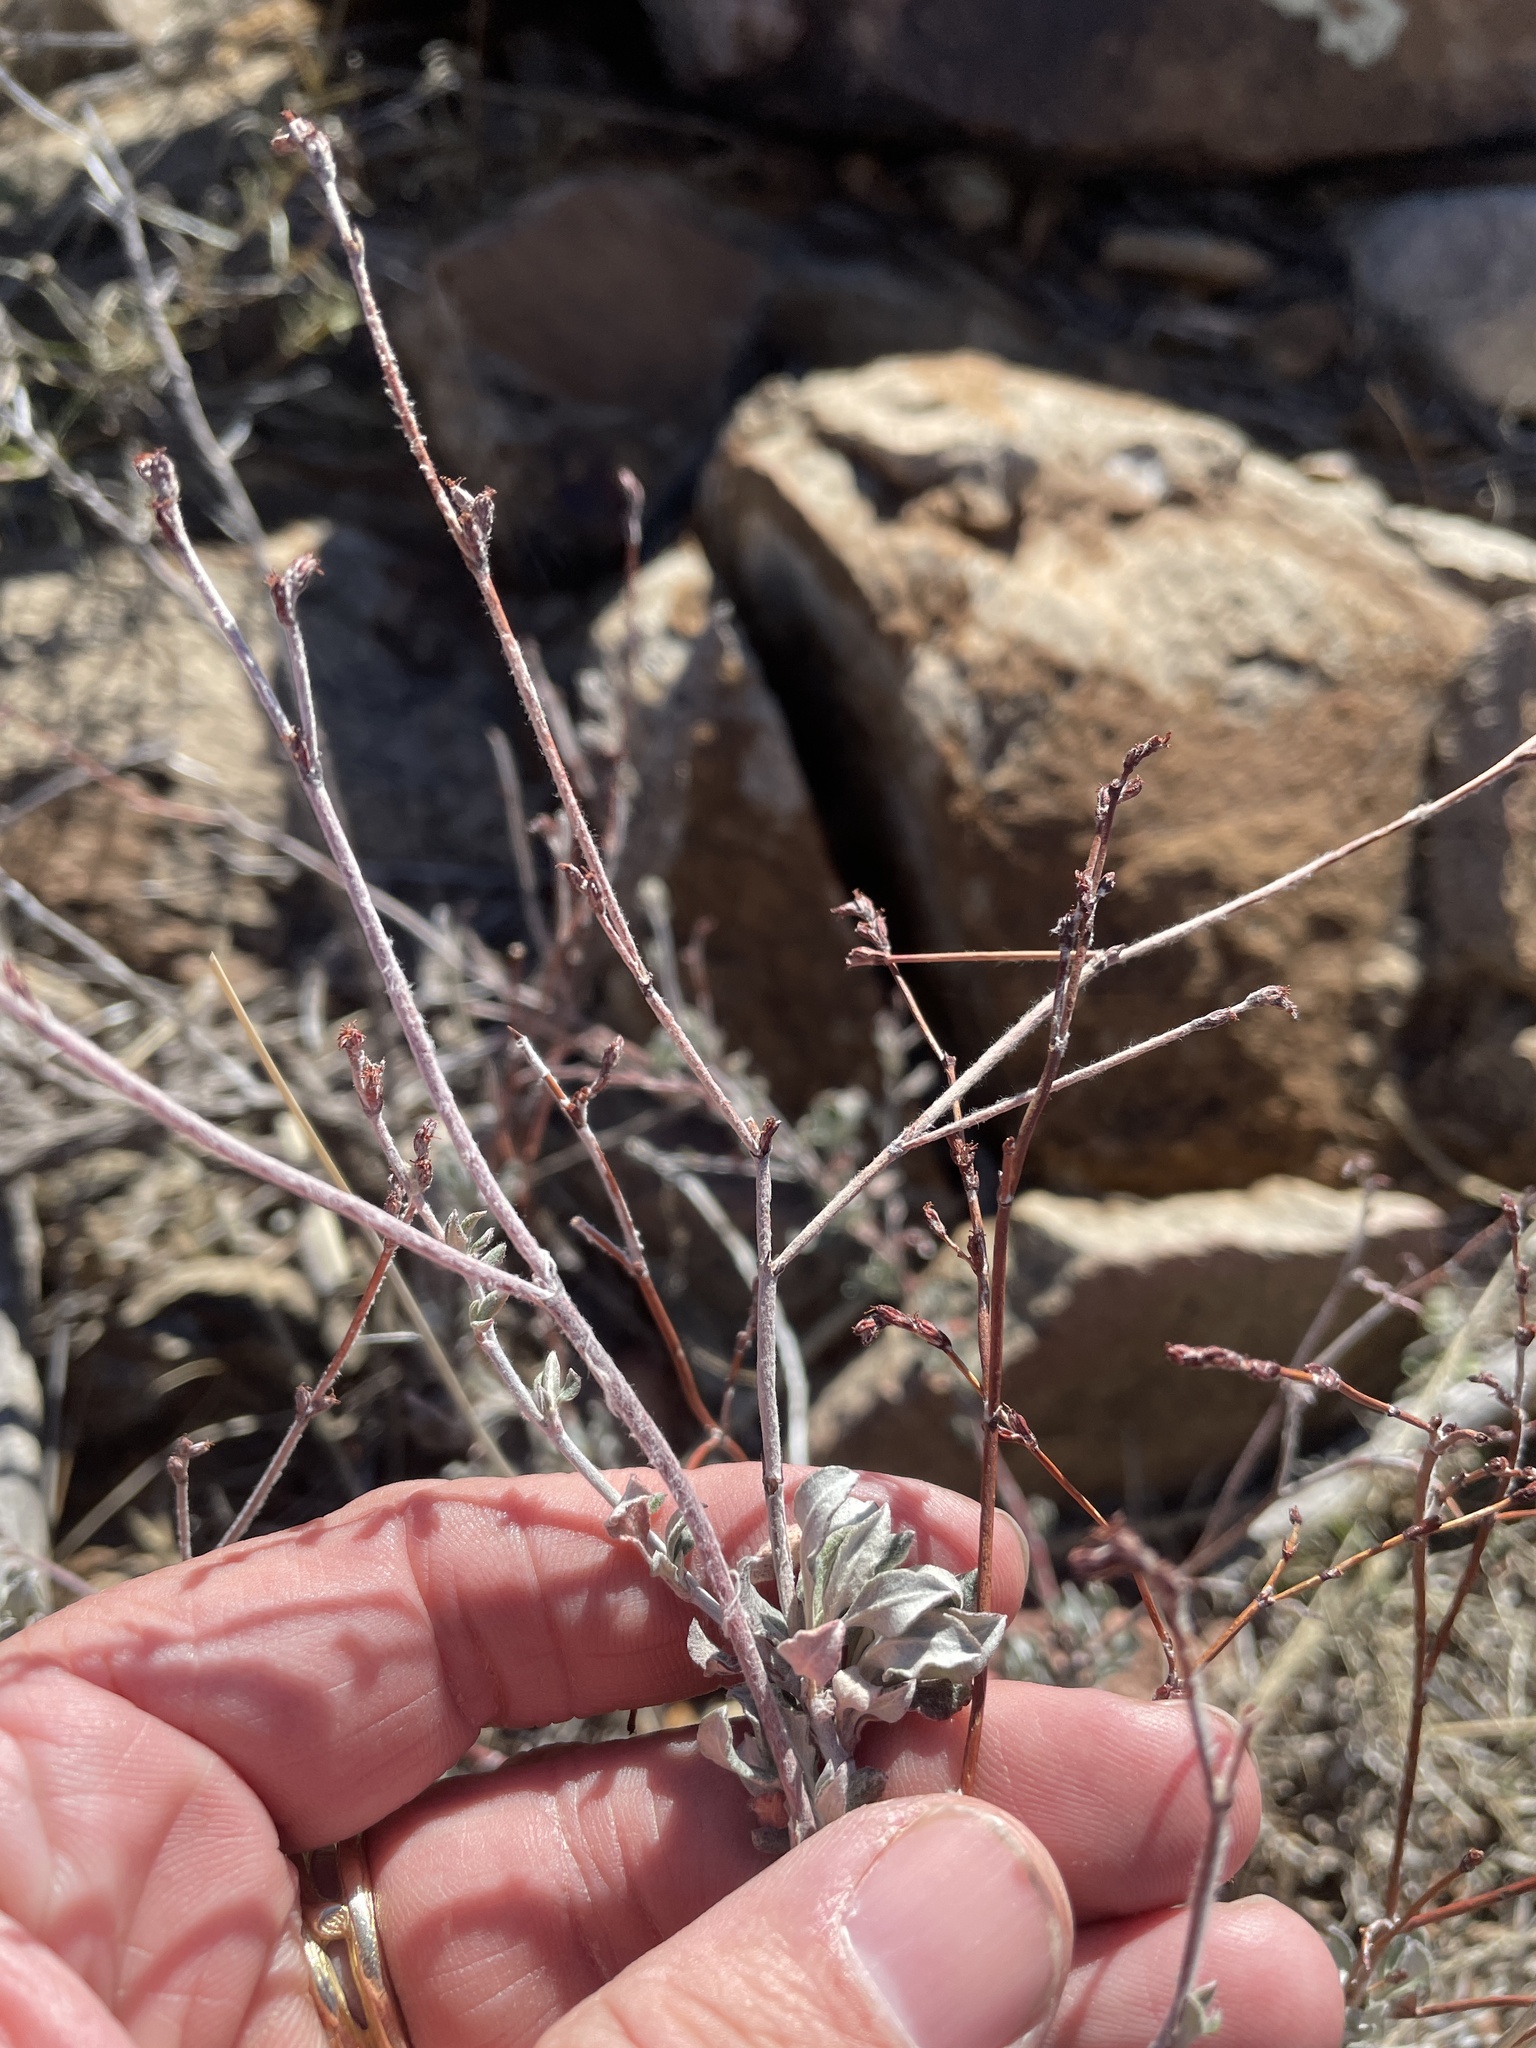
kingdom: Plantae
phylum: Tracheophyta
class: Magnoliopsida
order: Caryophyllales
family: Polygonaceae
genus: Eriogonum
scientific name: Eriogonum wrightii
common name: Bastard-sage
